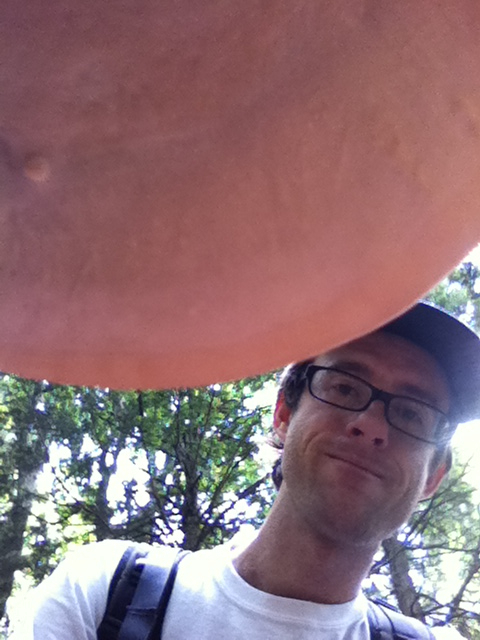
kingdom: Fungi
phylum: Basidiomycota
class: Agaricomycetes
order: Polyporales
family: Polyporaceae
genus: Ganoderma
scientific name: Ganoderma tsugae
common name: Hemlock varnish shelf
